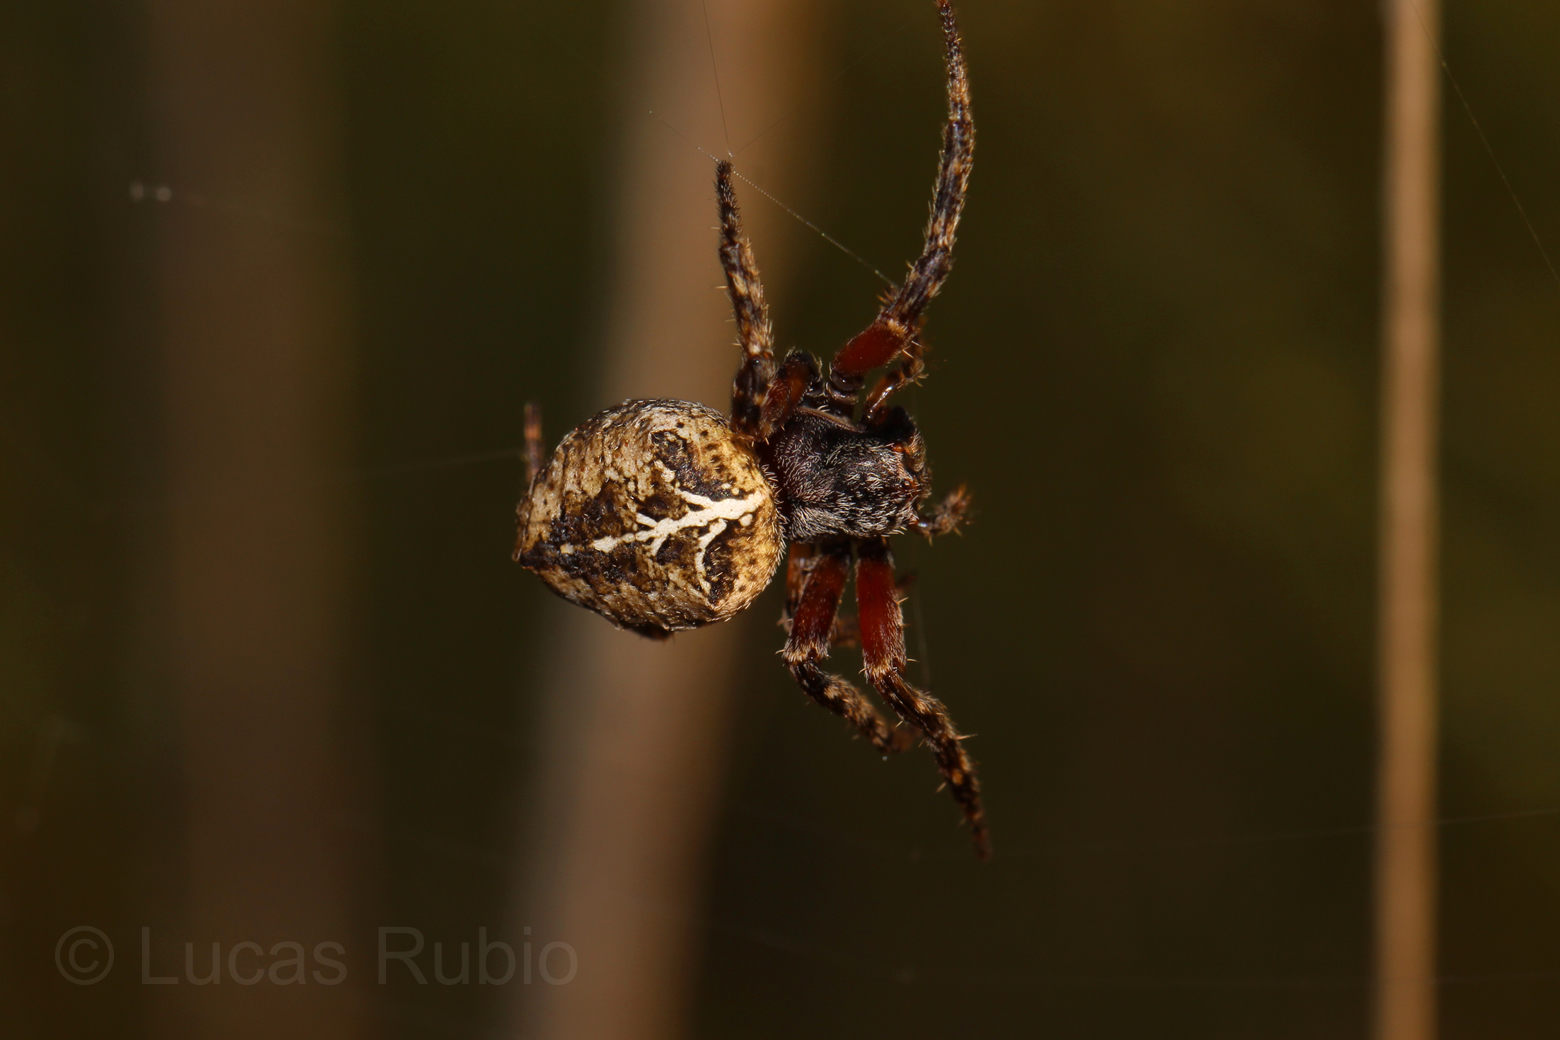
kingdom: Animalia
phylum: Arthropoda
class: Arachnida
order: Araneae
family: Araneidae
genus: Parawixia
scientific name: Parawixia undulata
